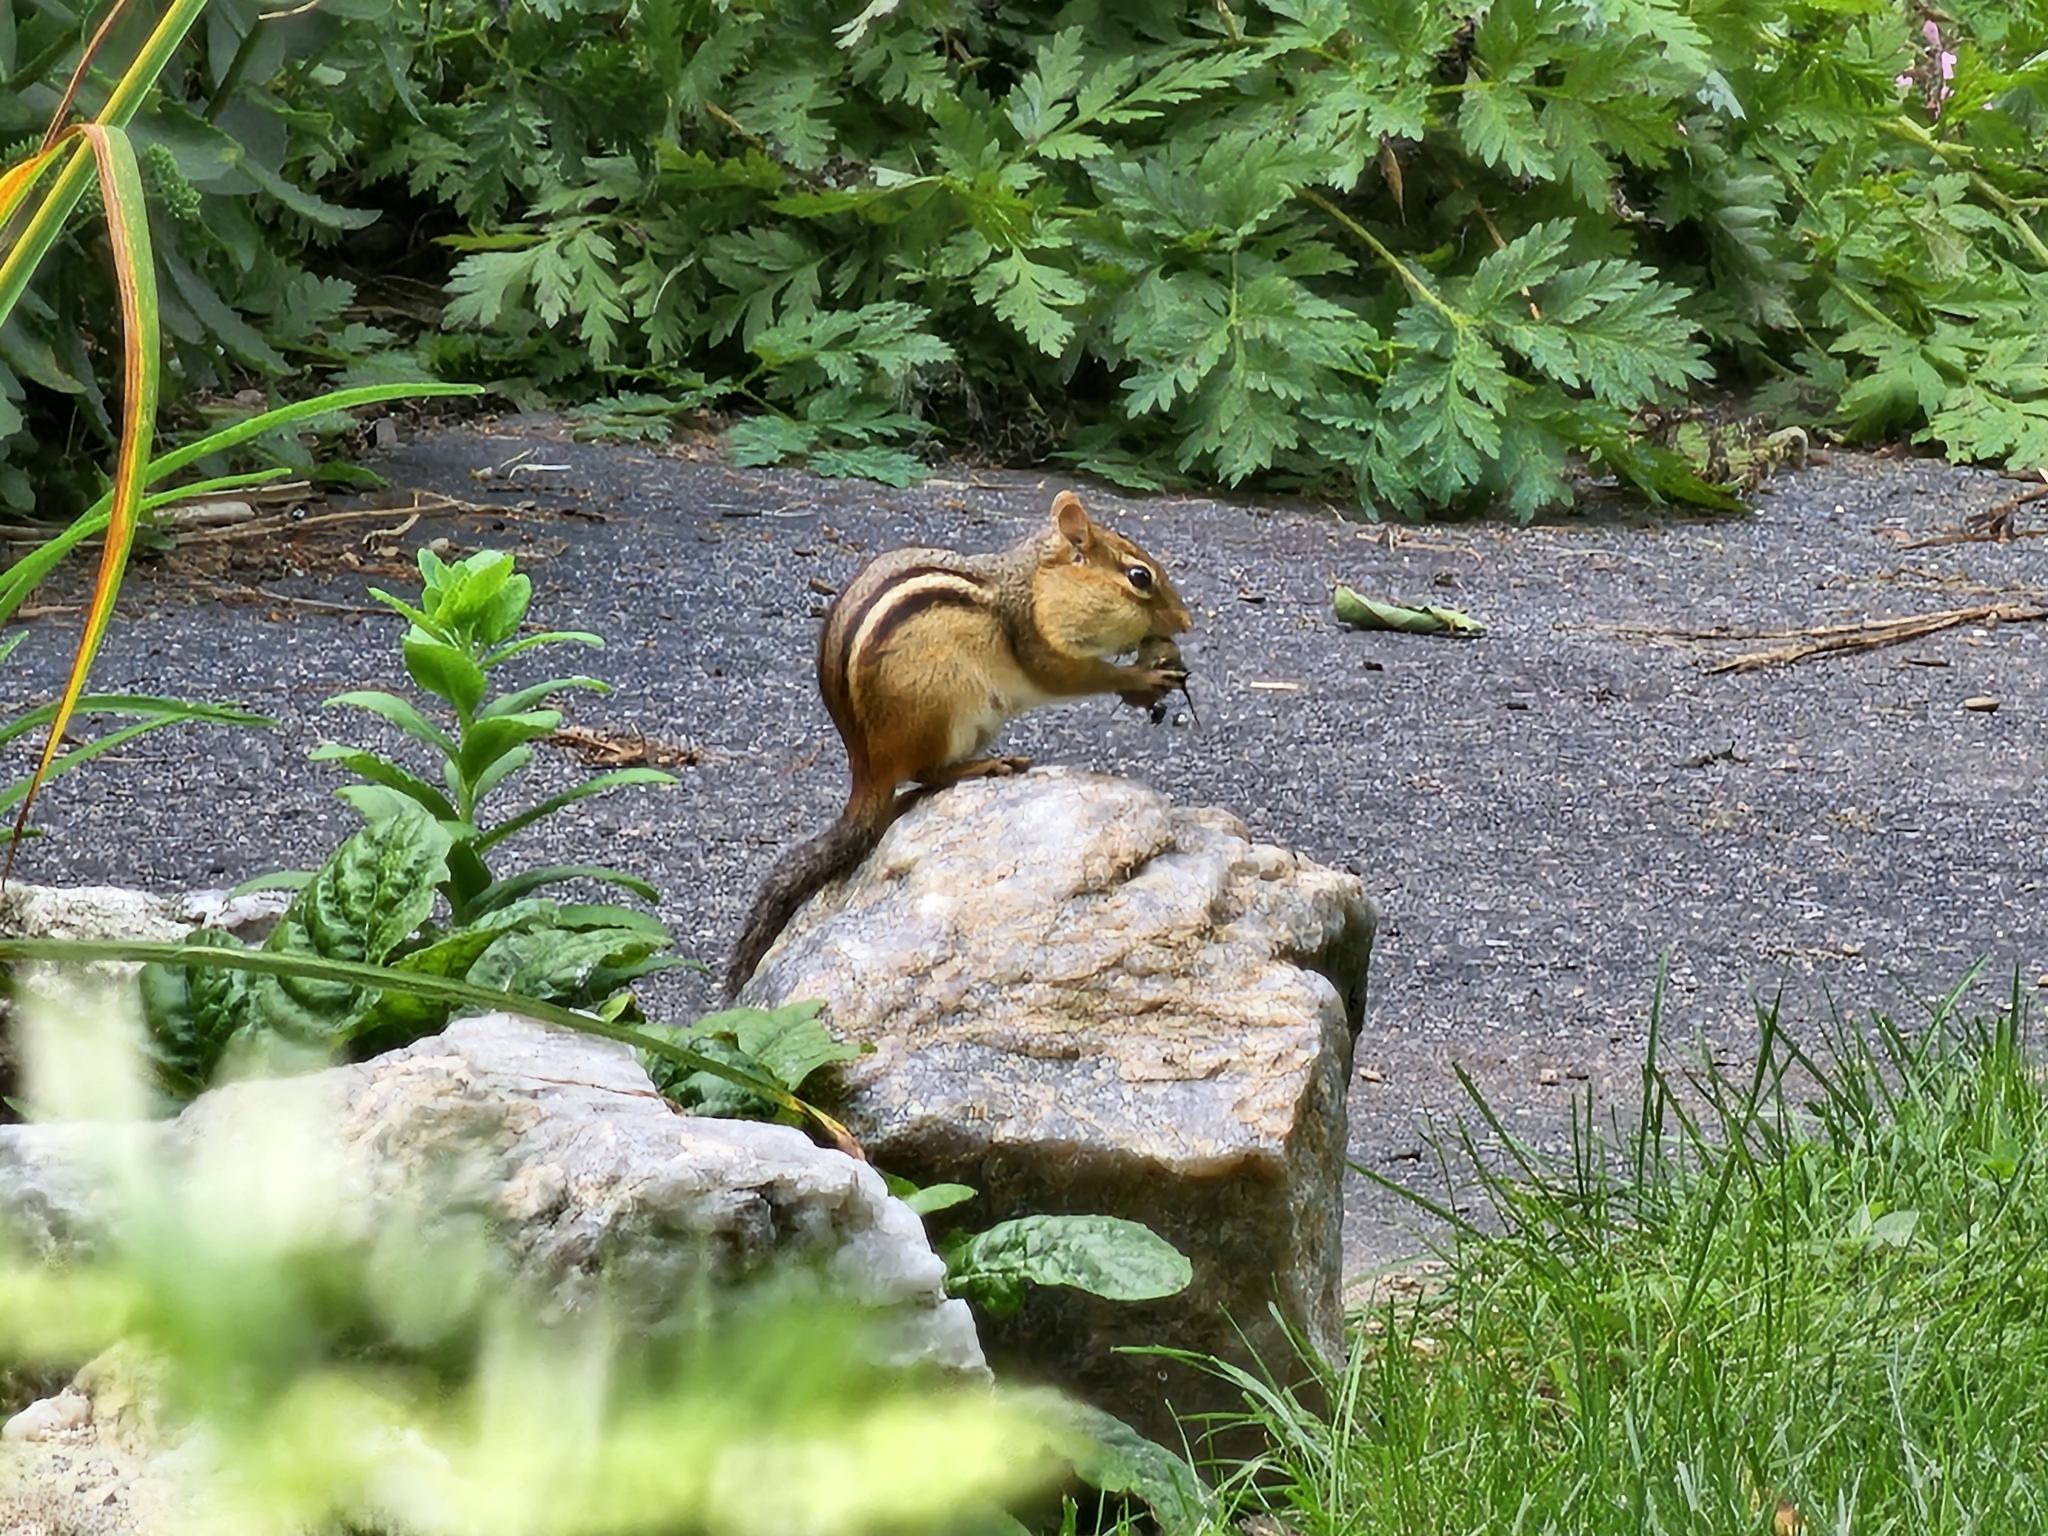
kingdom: Animalia
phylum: Chordata
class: Mammalia
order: Rodentia
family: Sciuridae
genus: Tamias
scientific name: Tamias striatus
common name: Eastern chipmunk
